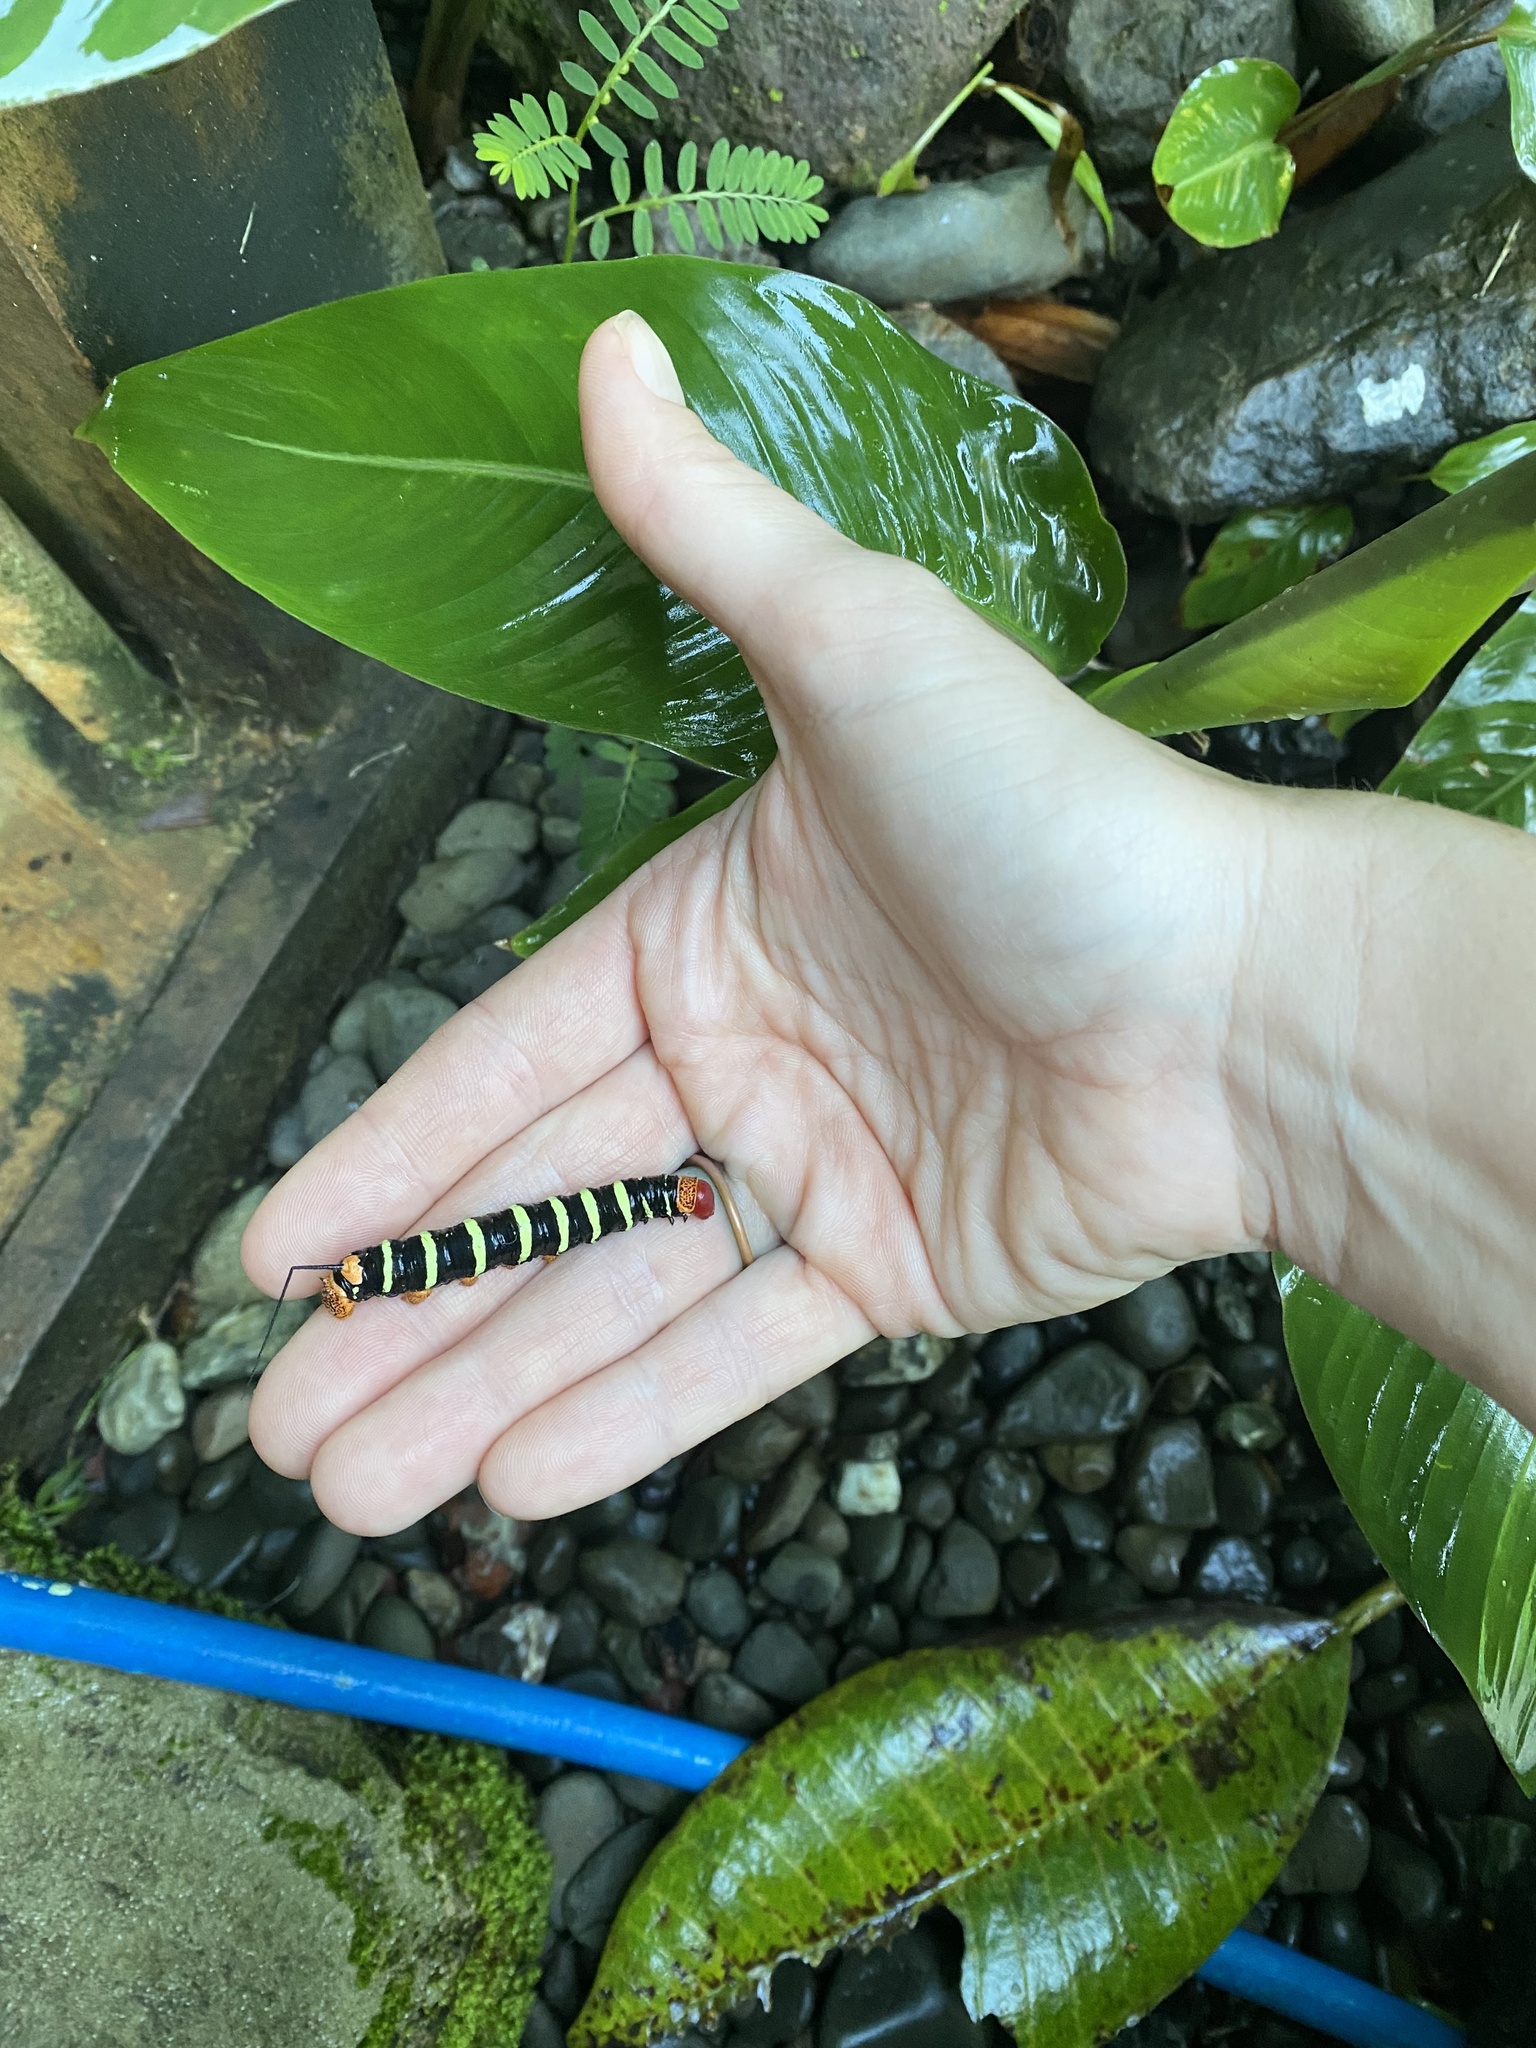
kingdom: Animalia
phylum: Arthropoda
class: Insecta
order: Lepidoptera
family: Sphingidae
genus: Pseudosphinx
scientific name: Pseudosphinx tetrio
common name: Tetrio sphinx
